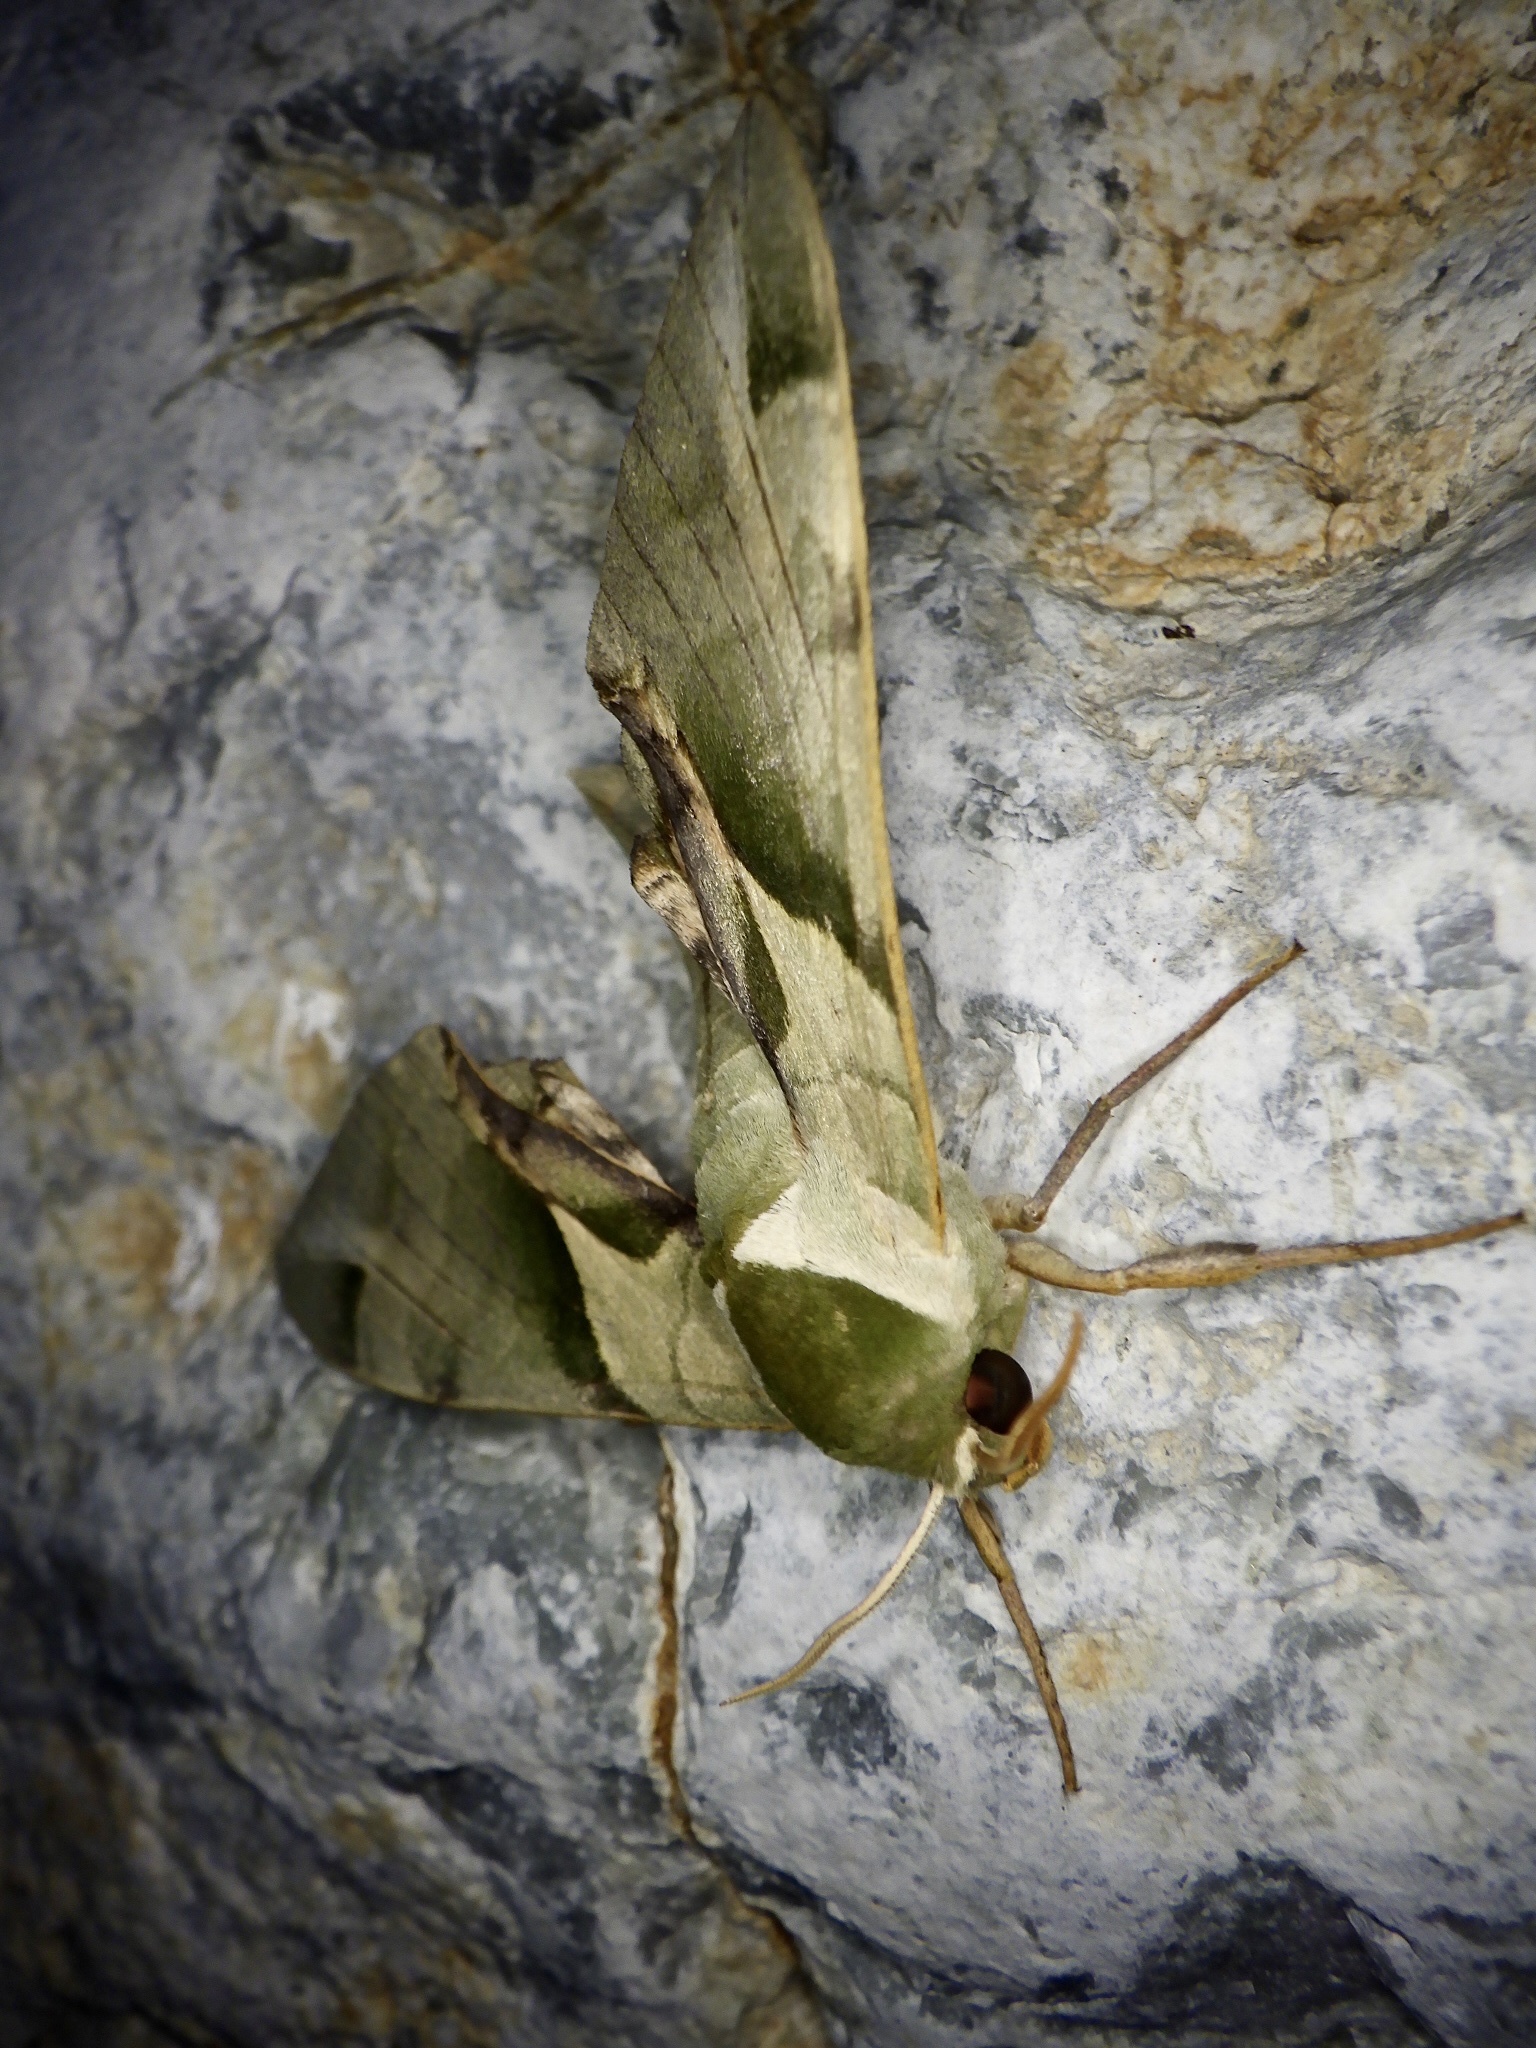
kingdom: Animalia
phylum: Arthropoda
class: Insecta
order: Lepidoptera
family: Sphingidae
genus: Callambulyx
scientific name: Callambulyx tatarinovii
